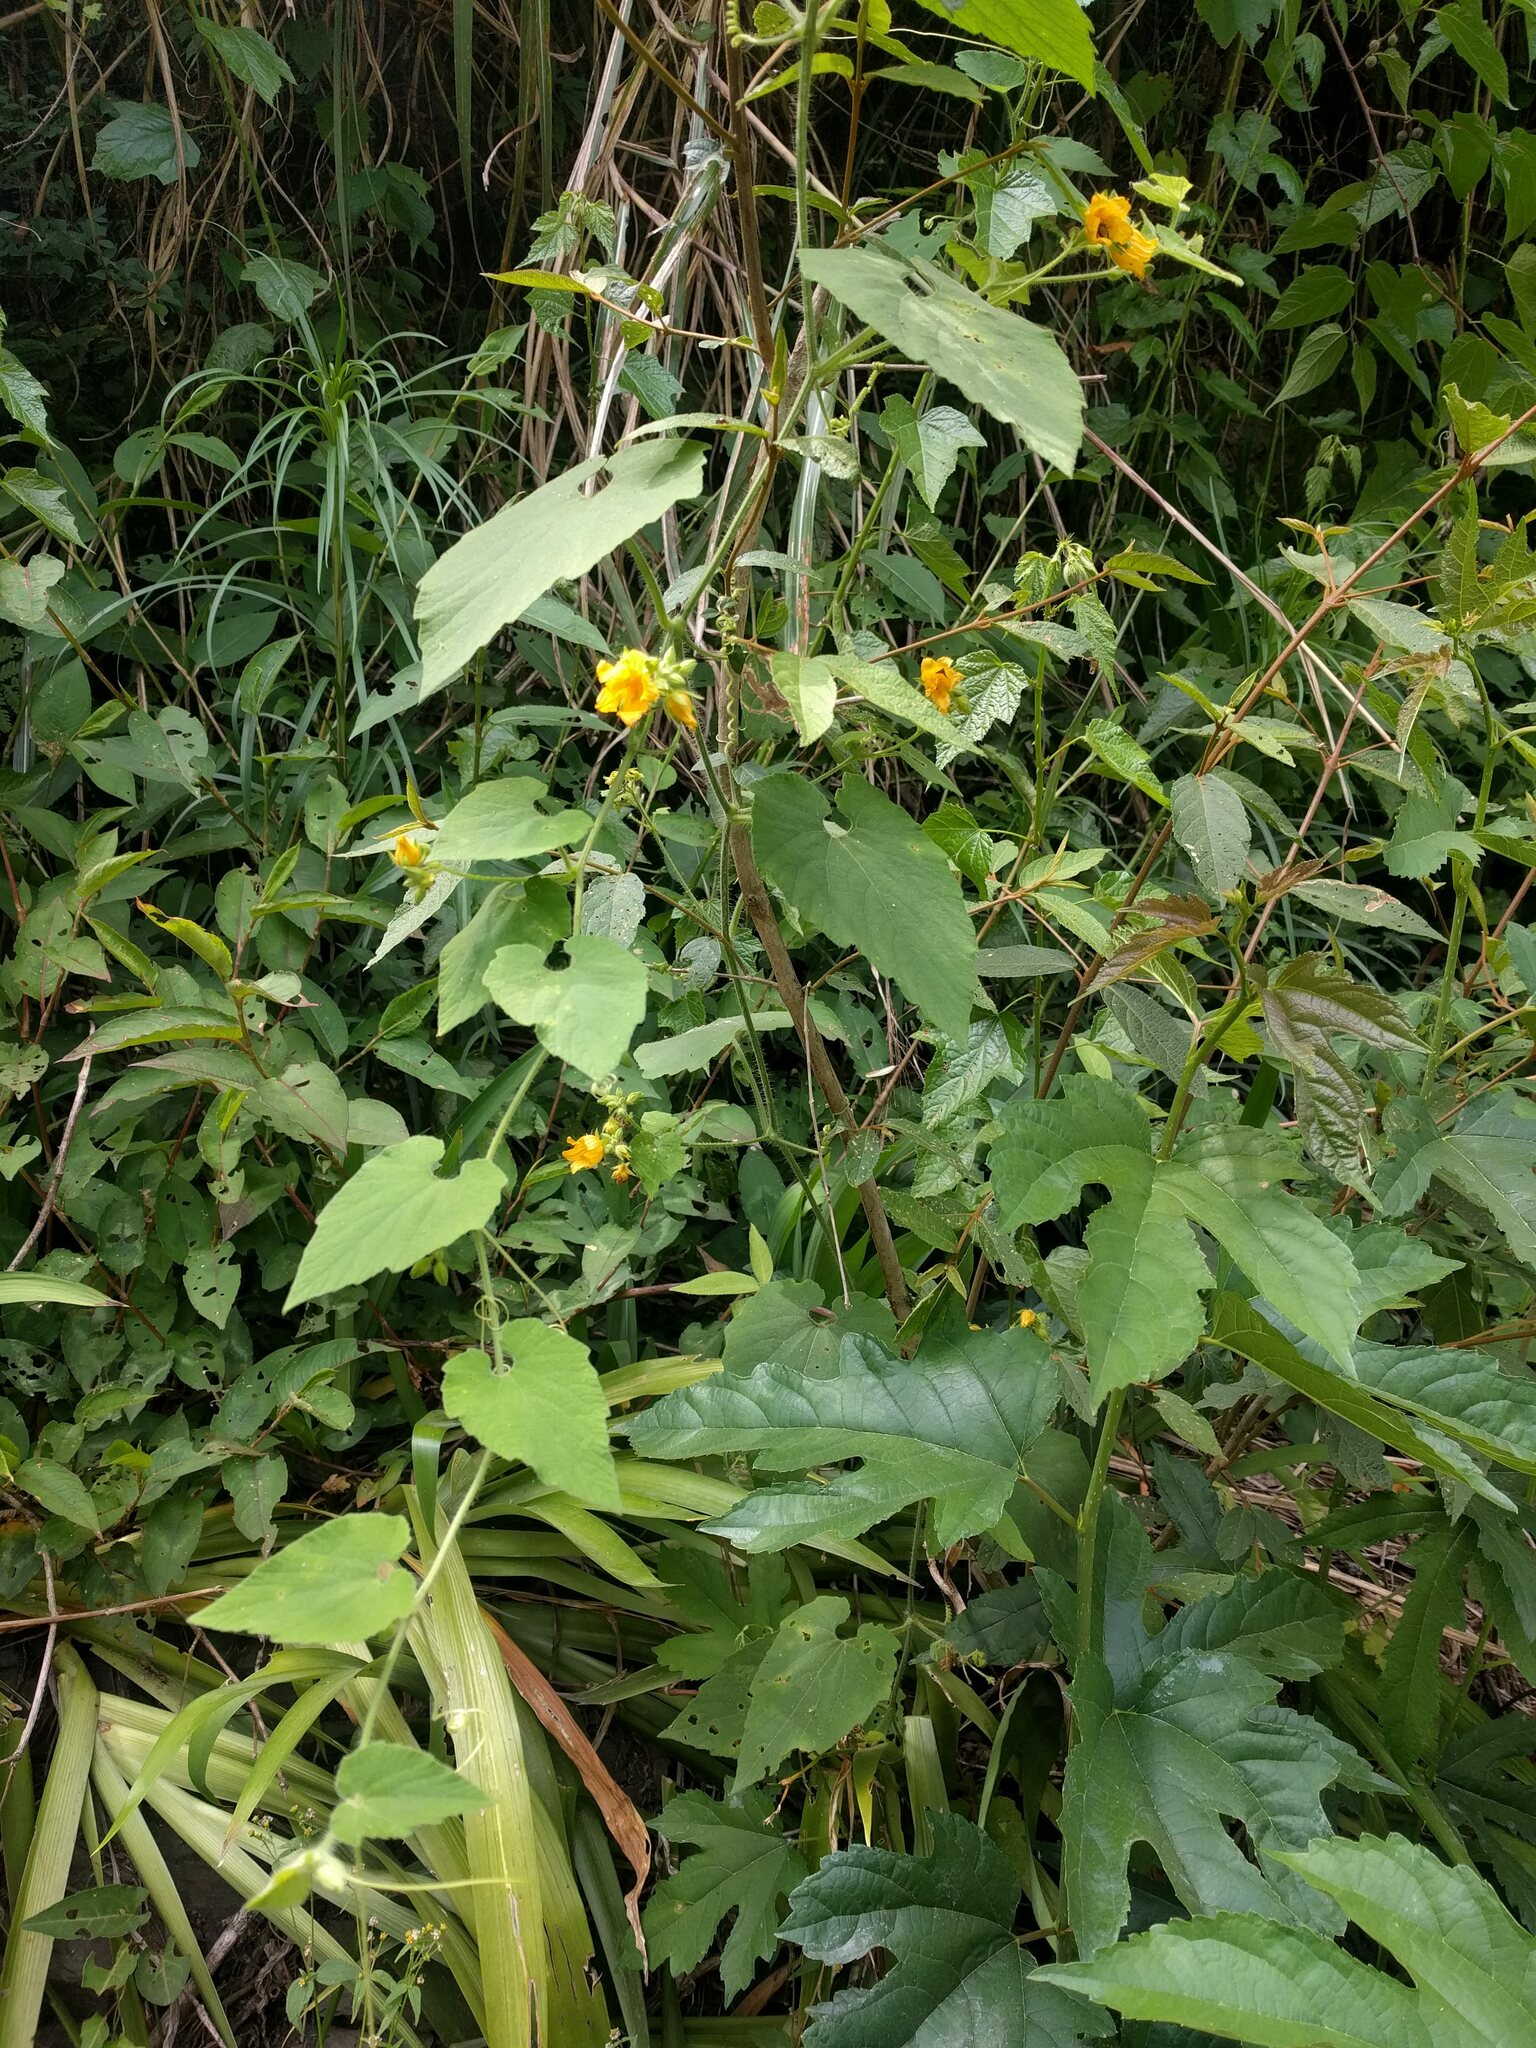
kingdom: Plantae
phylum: Tracheophyta
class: Magnoliopsida
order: Cucurbitales
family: Cucurbitaceae
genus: Thladiantha
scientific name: Thladiantha nudiflora
